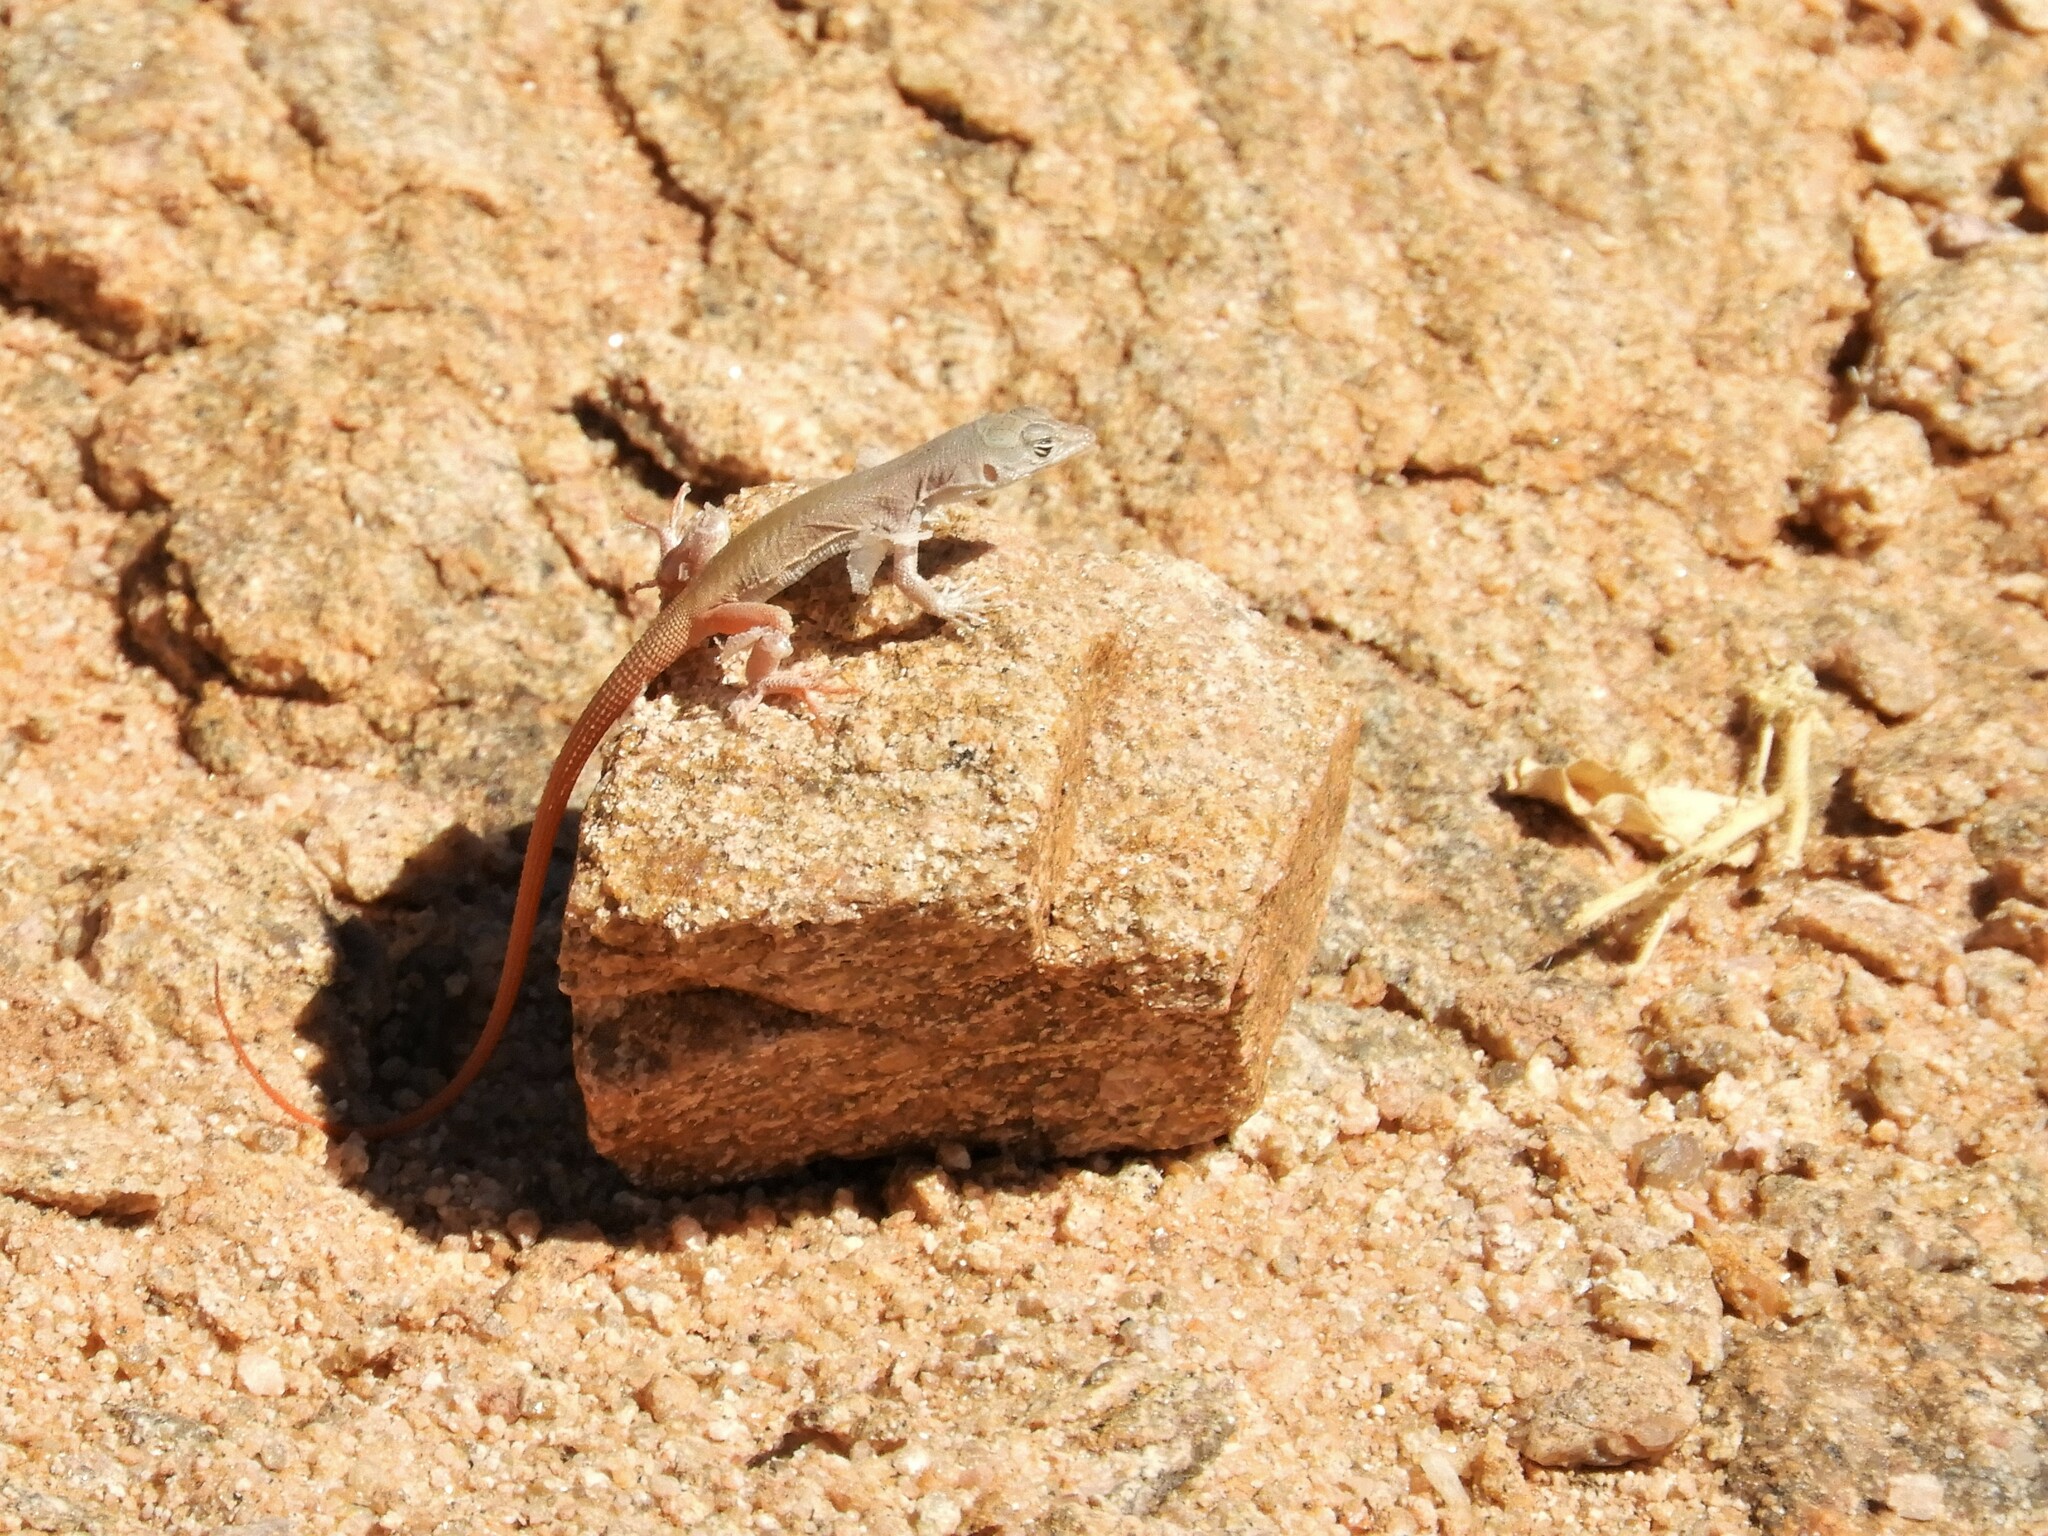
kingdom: Animalia
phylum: Chordata
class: Squamata
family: Lacertidae
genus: Pedioplanis
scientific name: Pedioplanis inornata
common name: Plain sand lizard
